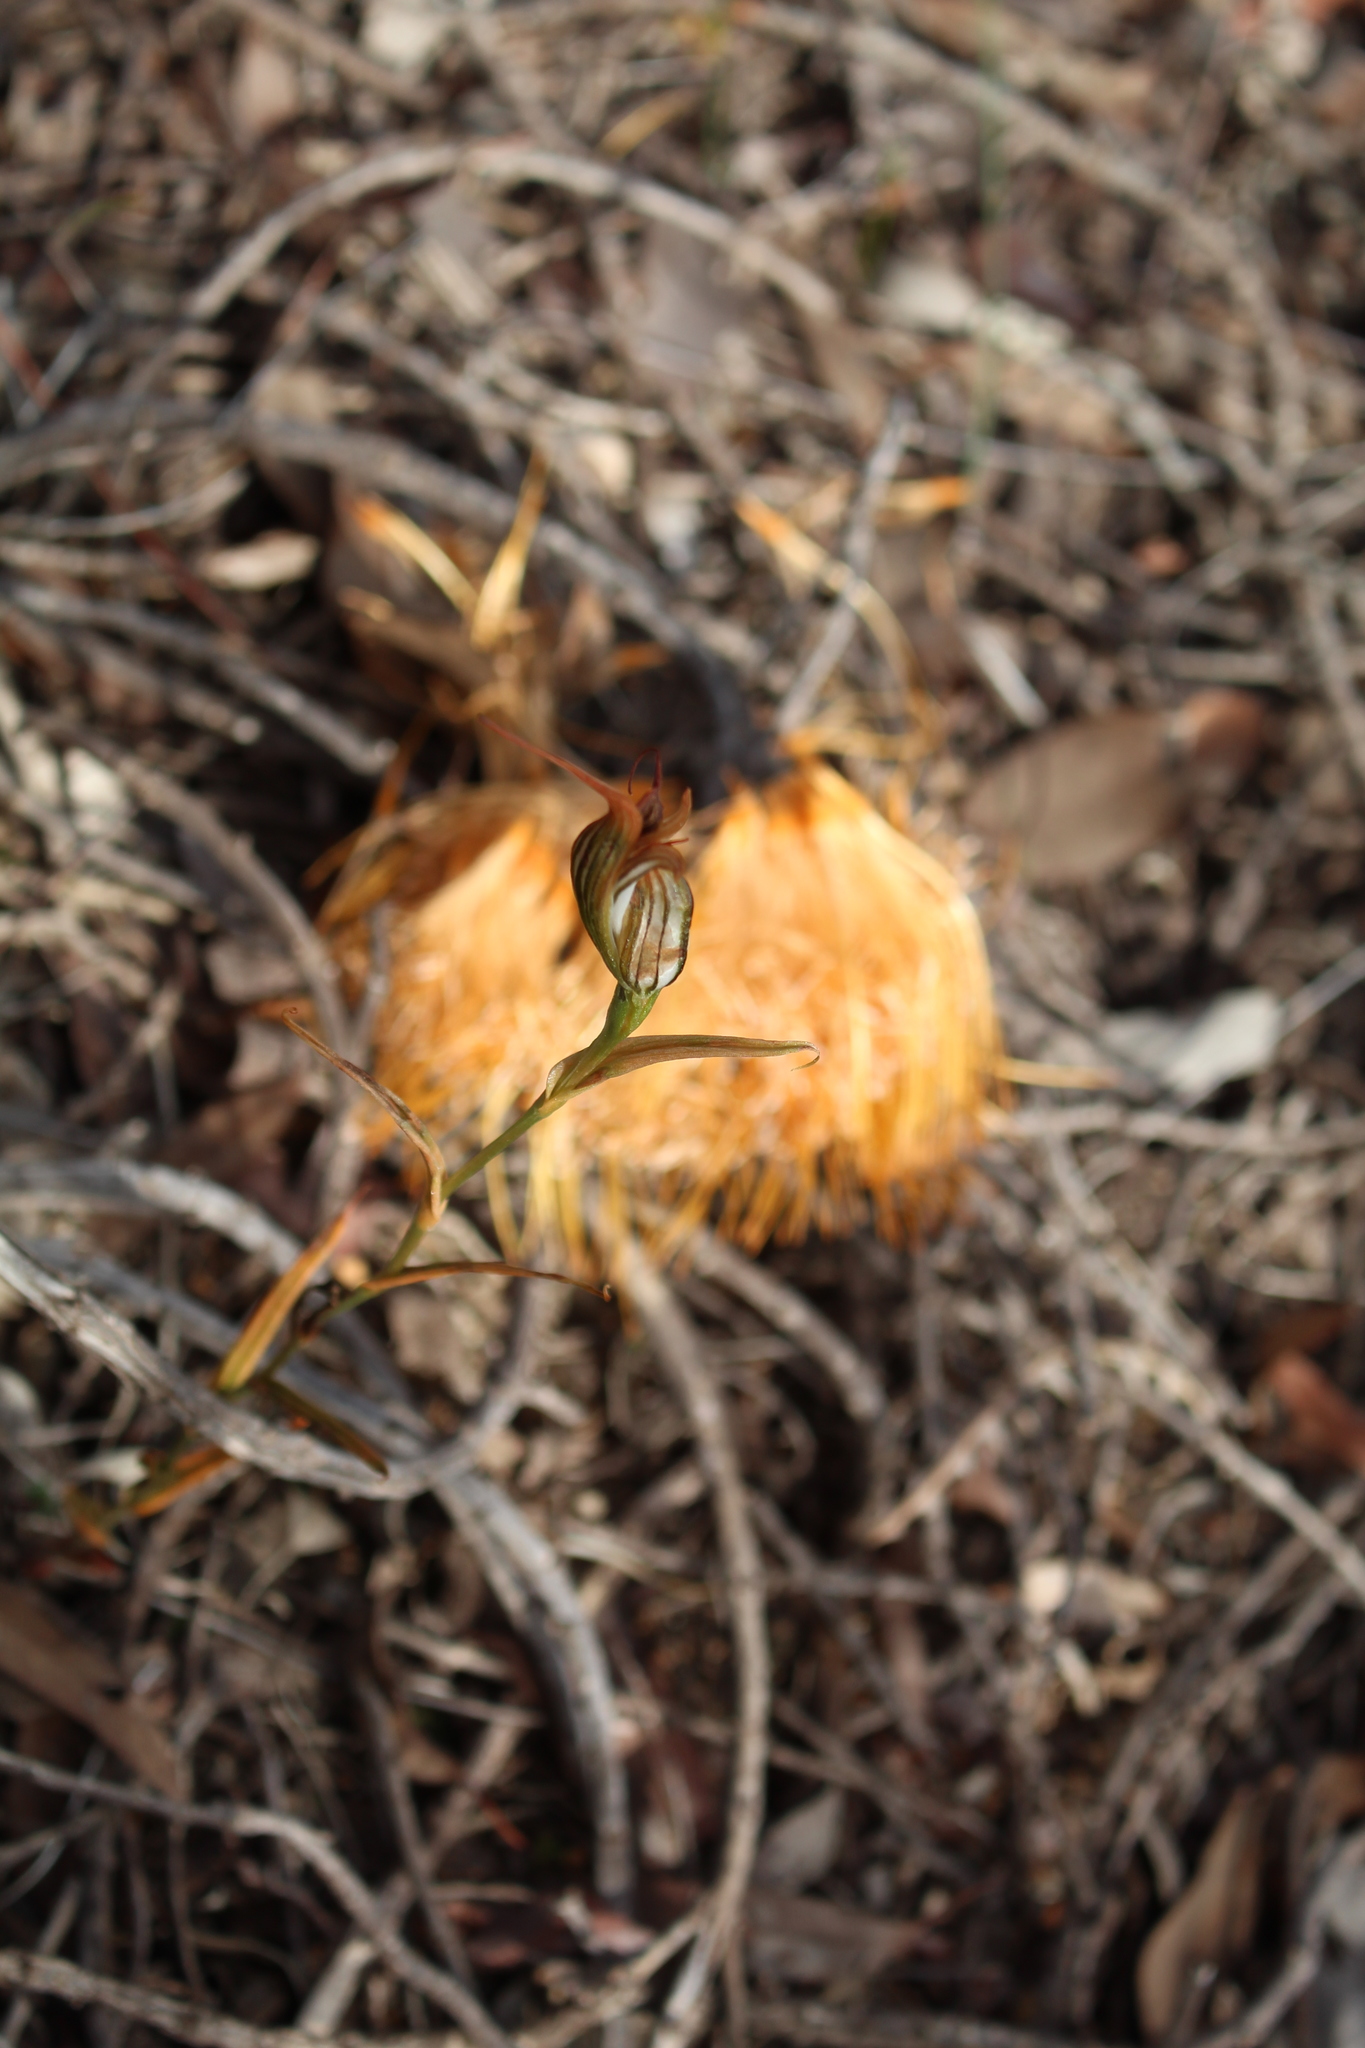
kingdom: Plantae
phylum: Tracheophyta
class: Liliopsida
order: Asparagales
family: Orchidaceae
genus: Pterostylis
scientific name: Pterostylis recurva
